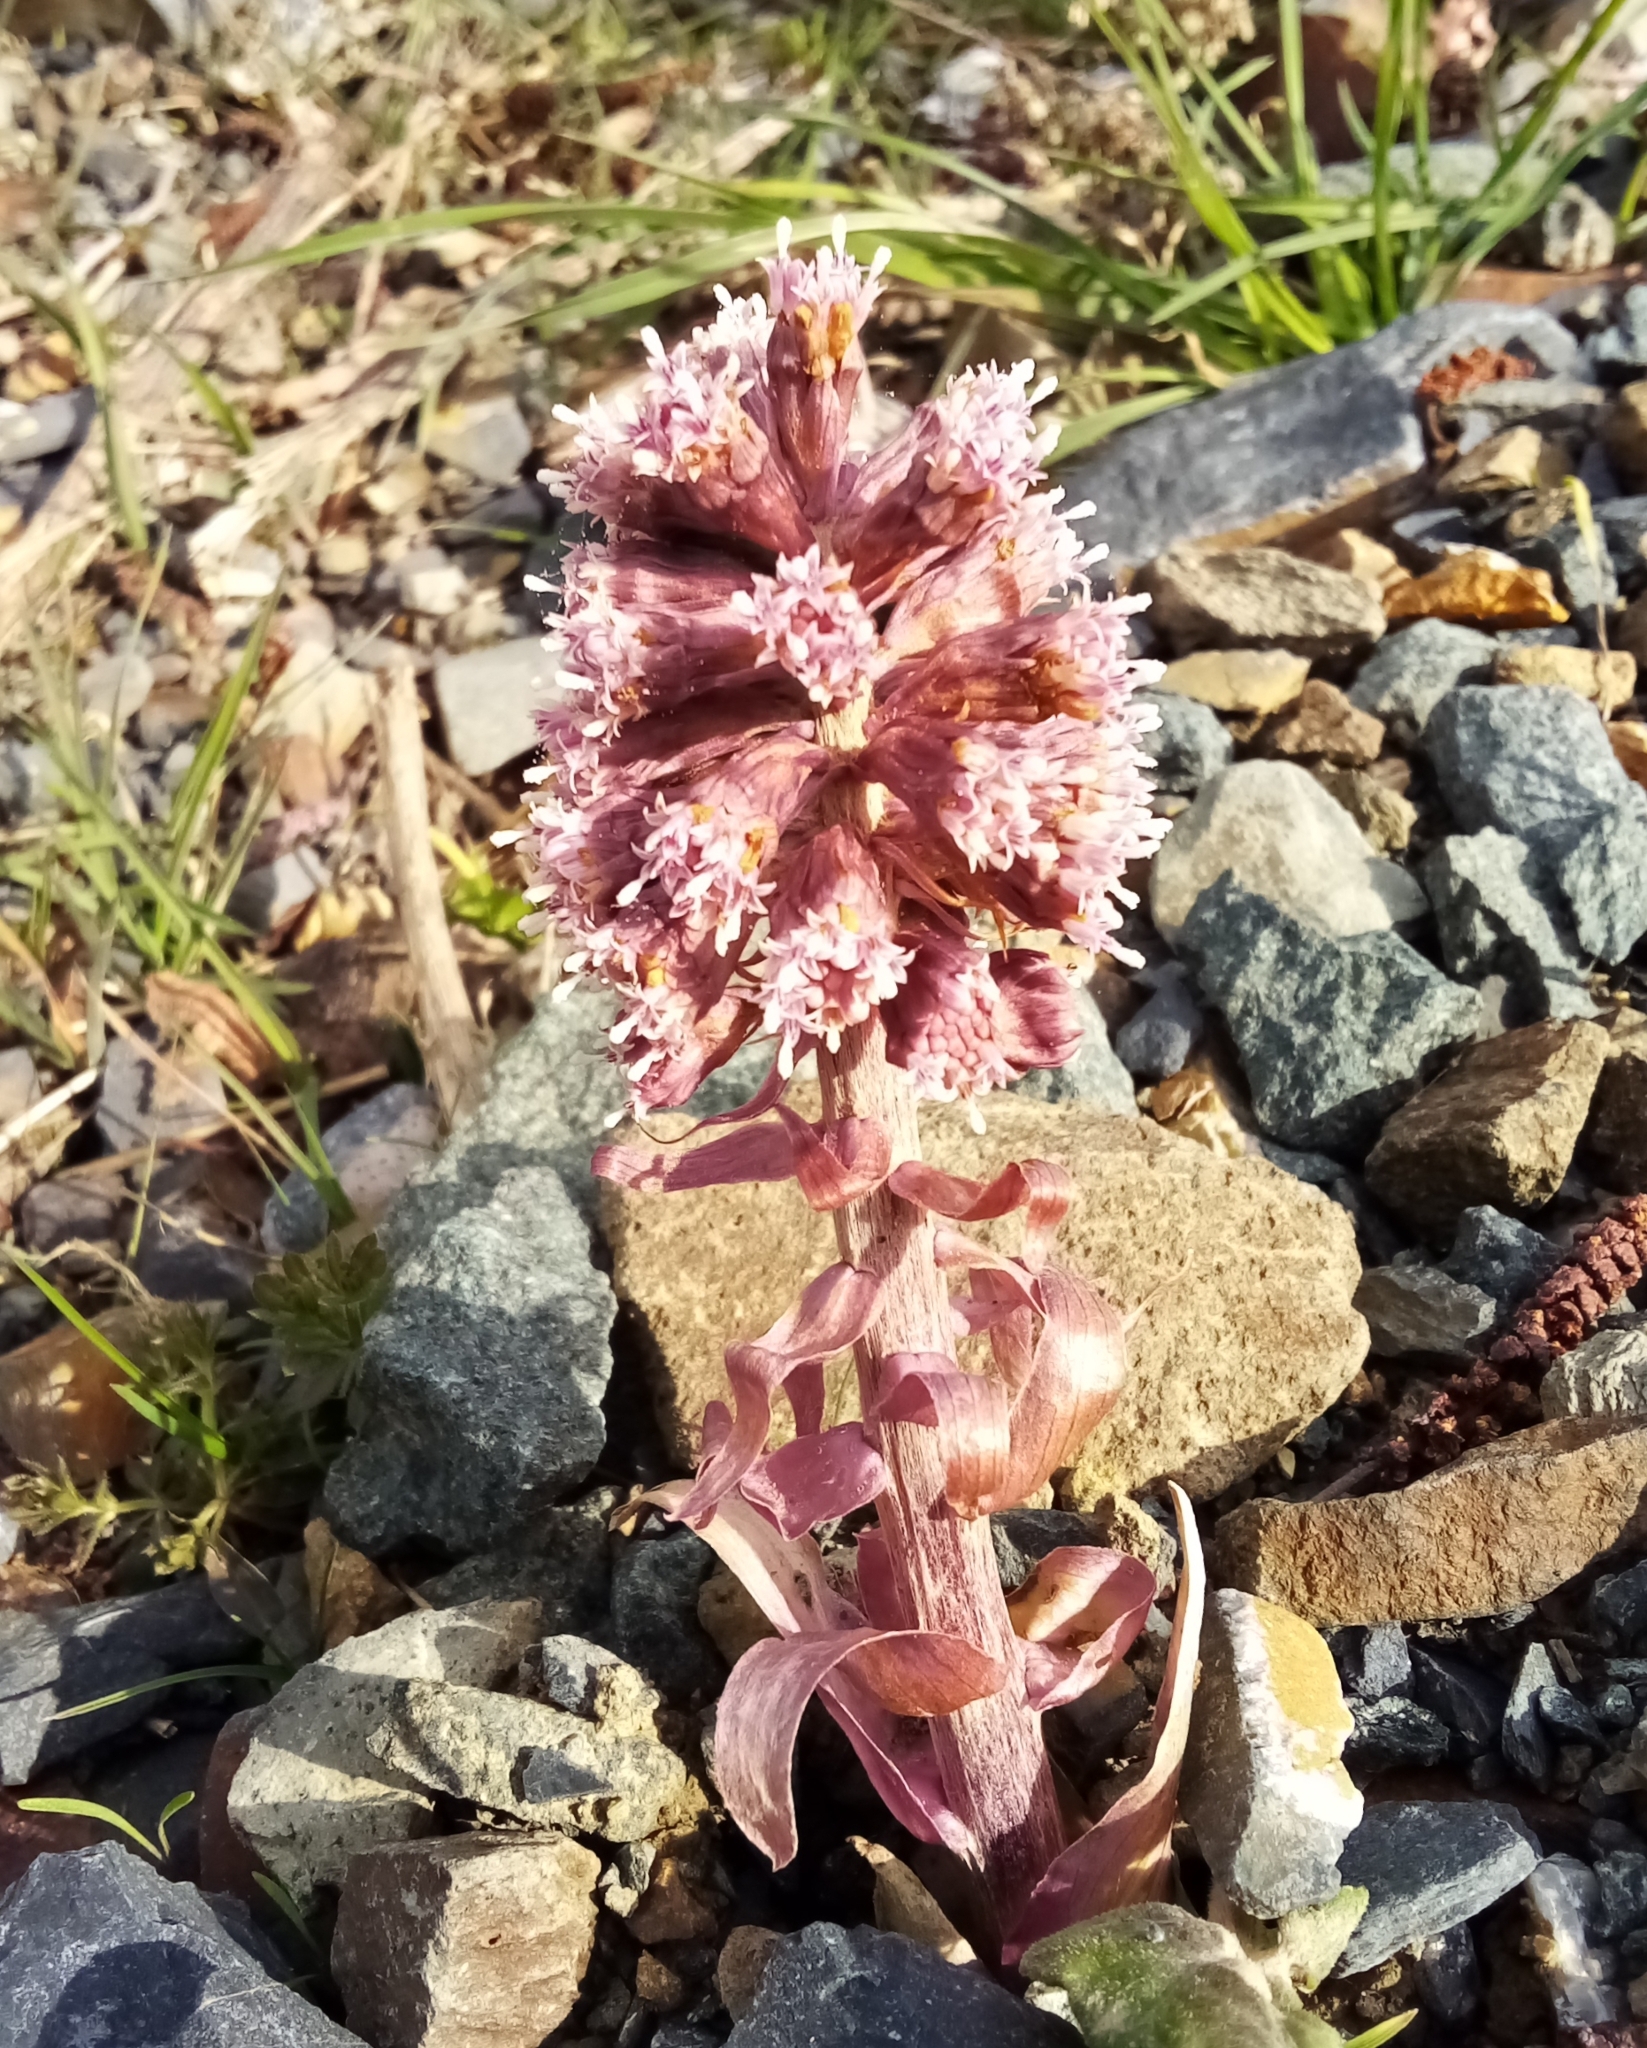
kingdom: Plantae
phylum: Tracheophyta
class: Magnoliopsida
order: Asterales
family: Asteraceae
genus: Petasites
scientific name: Petasites hybridus
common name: Butterbur
